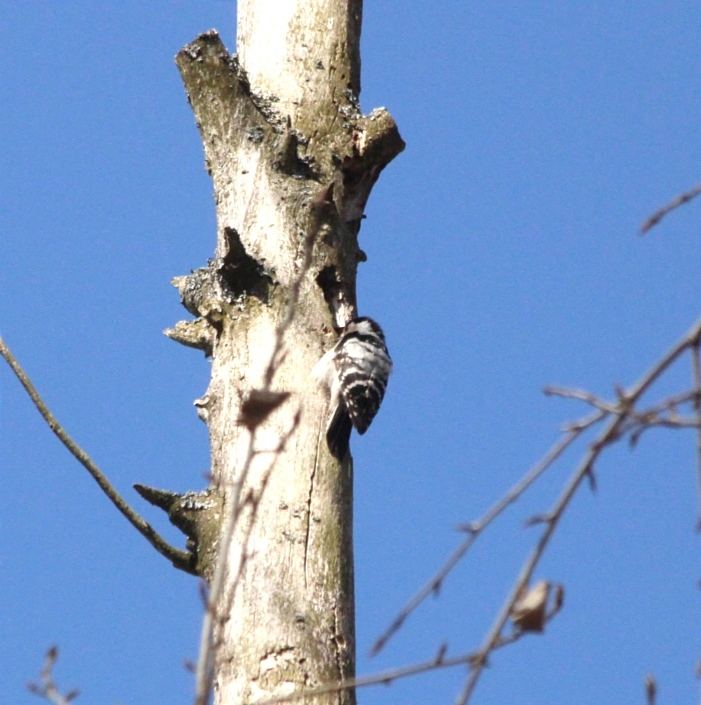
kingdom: Animalia
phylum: Chordata
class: Aves
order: Piciformes
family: Picidae
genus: Dryobates
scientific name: Dryobates minor
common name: Lesser spotted woodpecker
